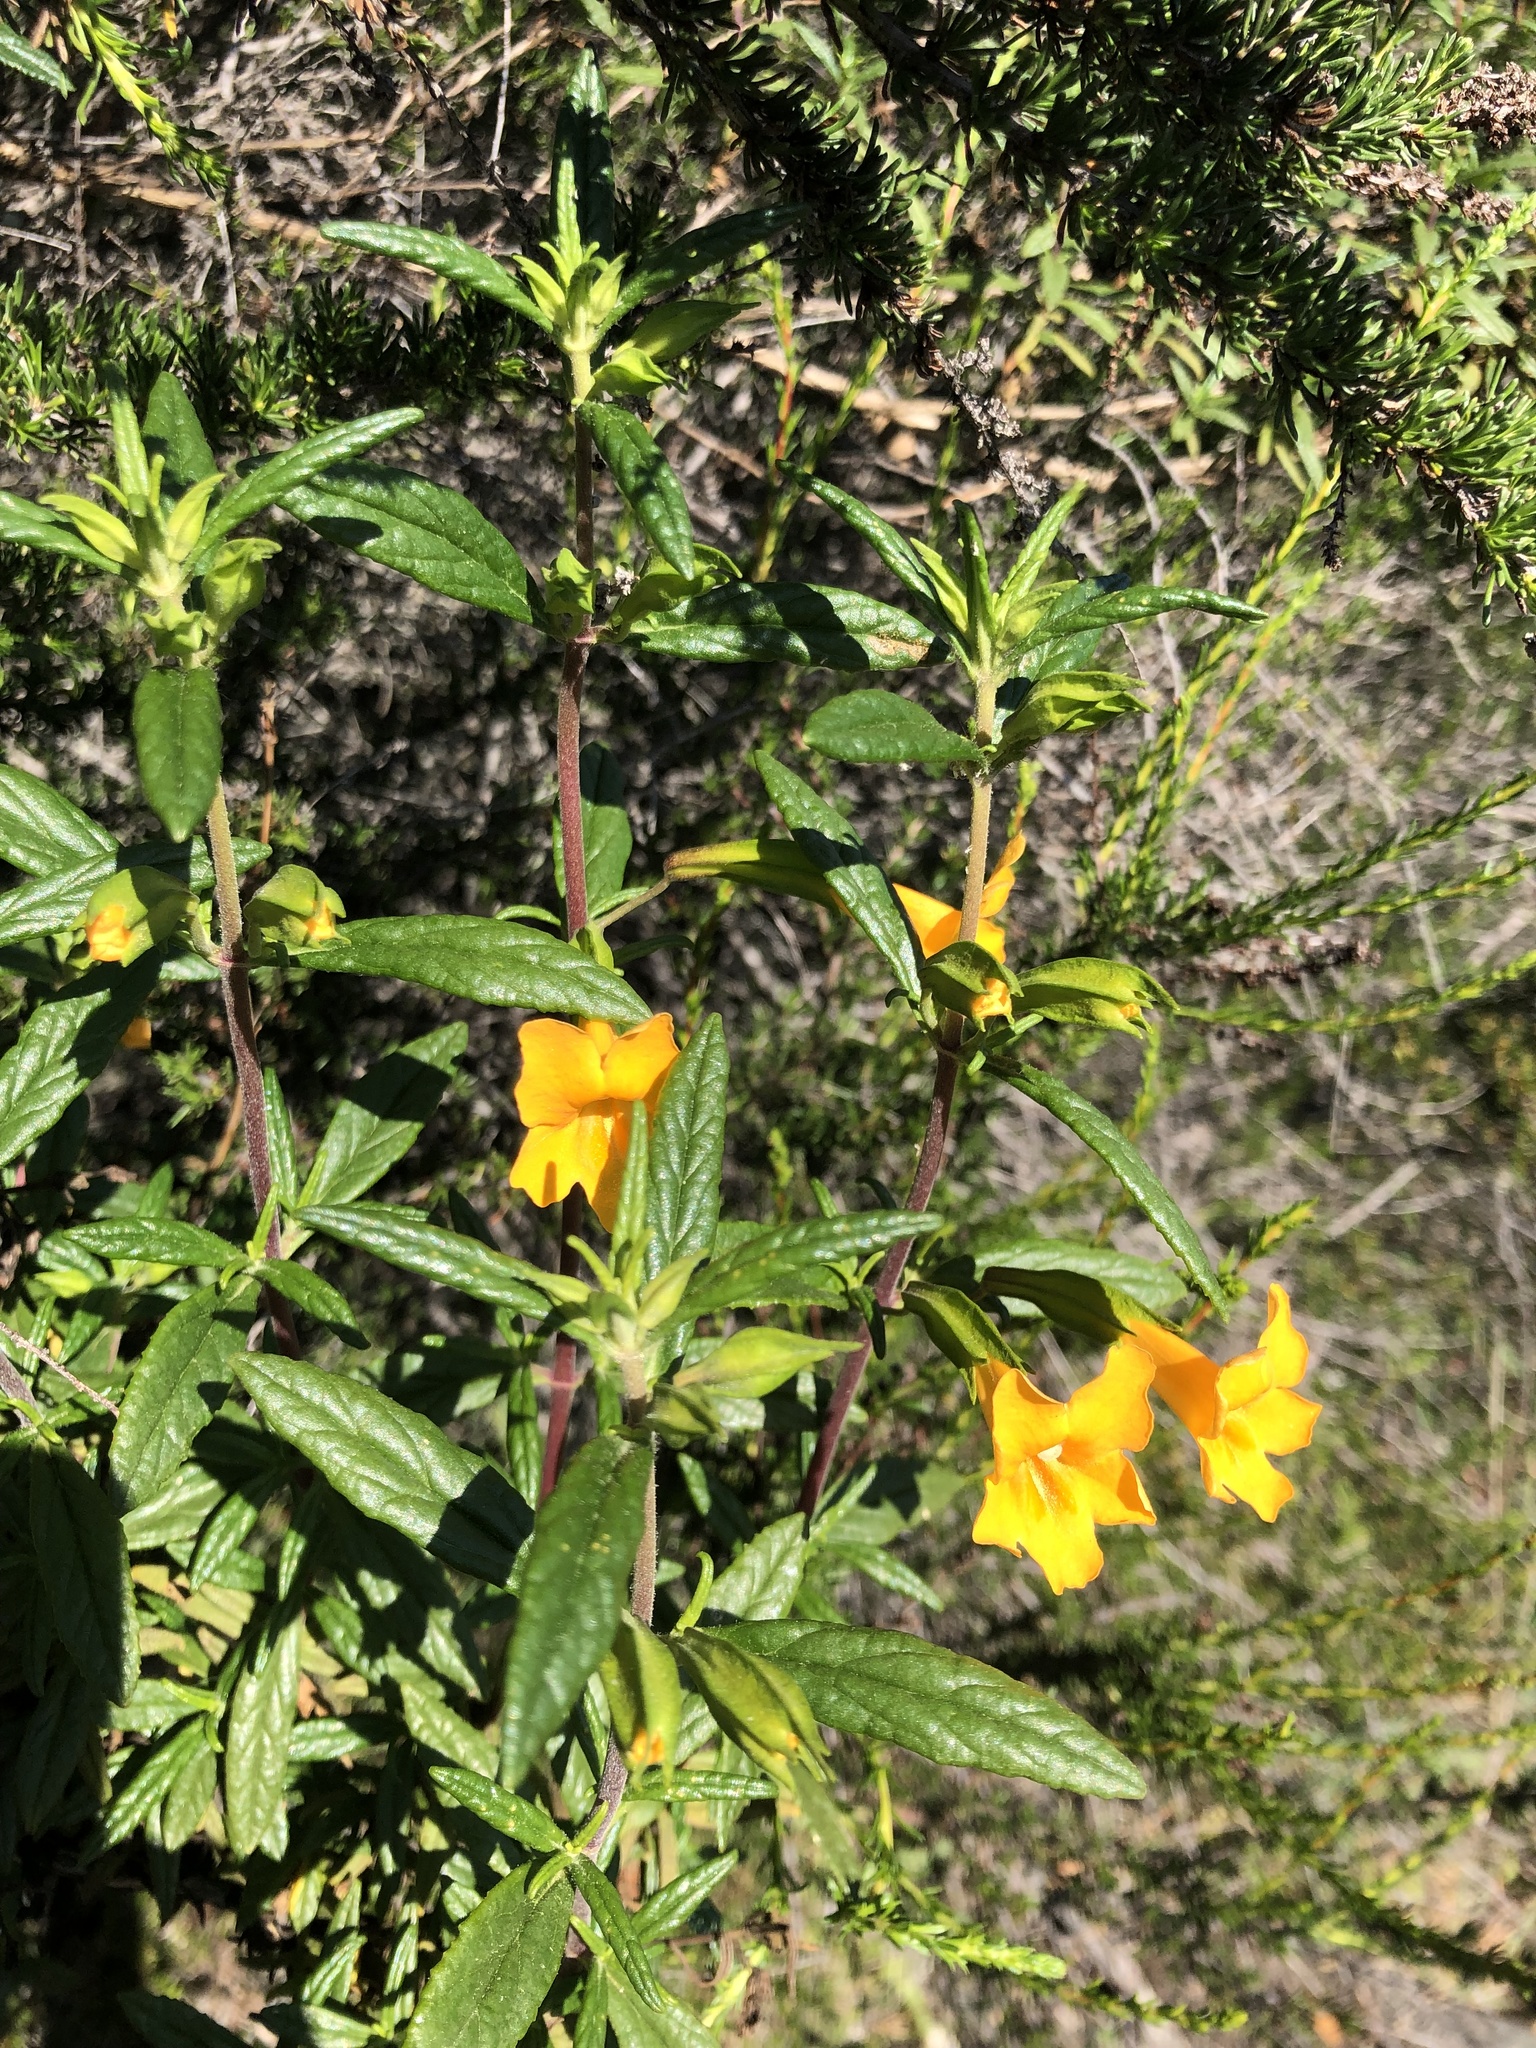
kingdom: Plantae
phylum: Tracheophyta
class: Magnoliopsida
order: Lamiales
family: Phrymaceae
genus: Diplacus
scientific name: Diplacus aurantiacus
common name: Bush monkey-flower
